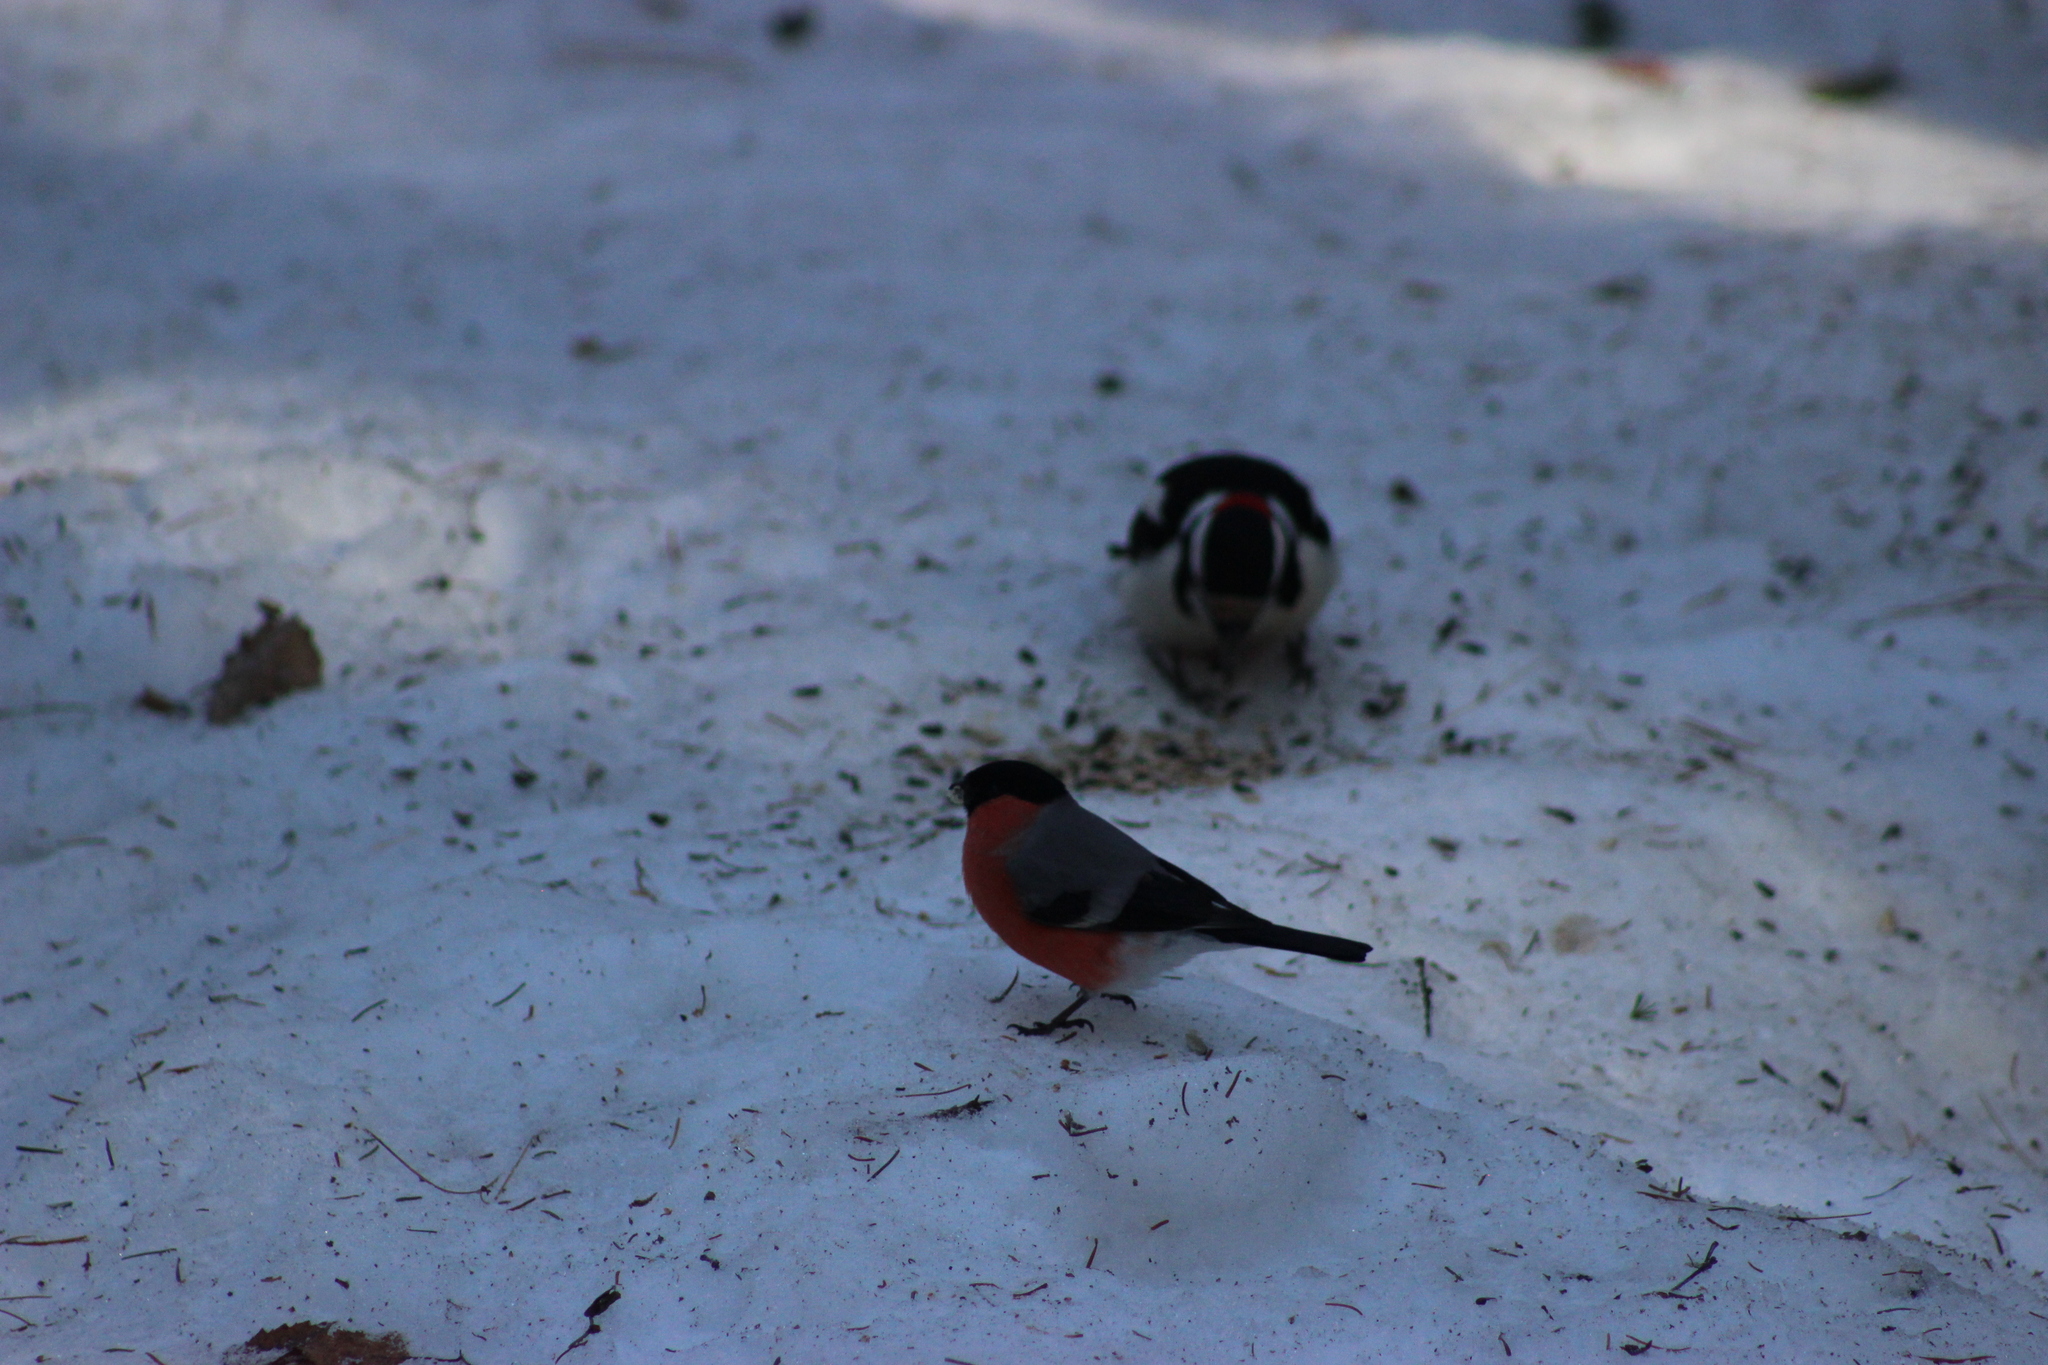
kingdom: Animalia
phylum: Chordata
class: Aves
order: Passeriformes
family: Fringillidae
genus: Pyrrhula
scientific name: Pyrrhula pyrrhula
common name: Eurasian bullfinch
